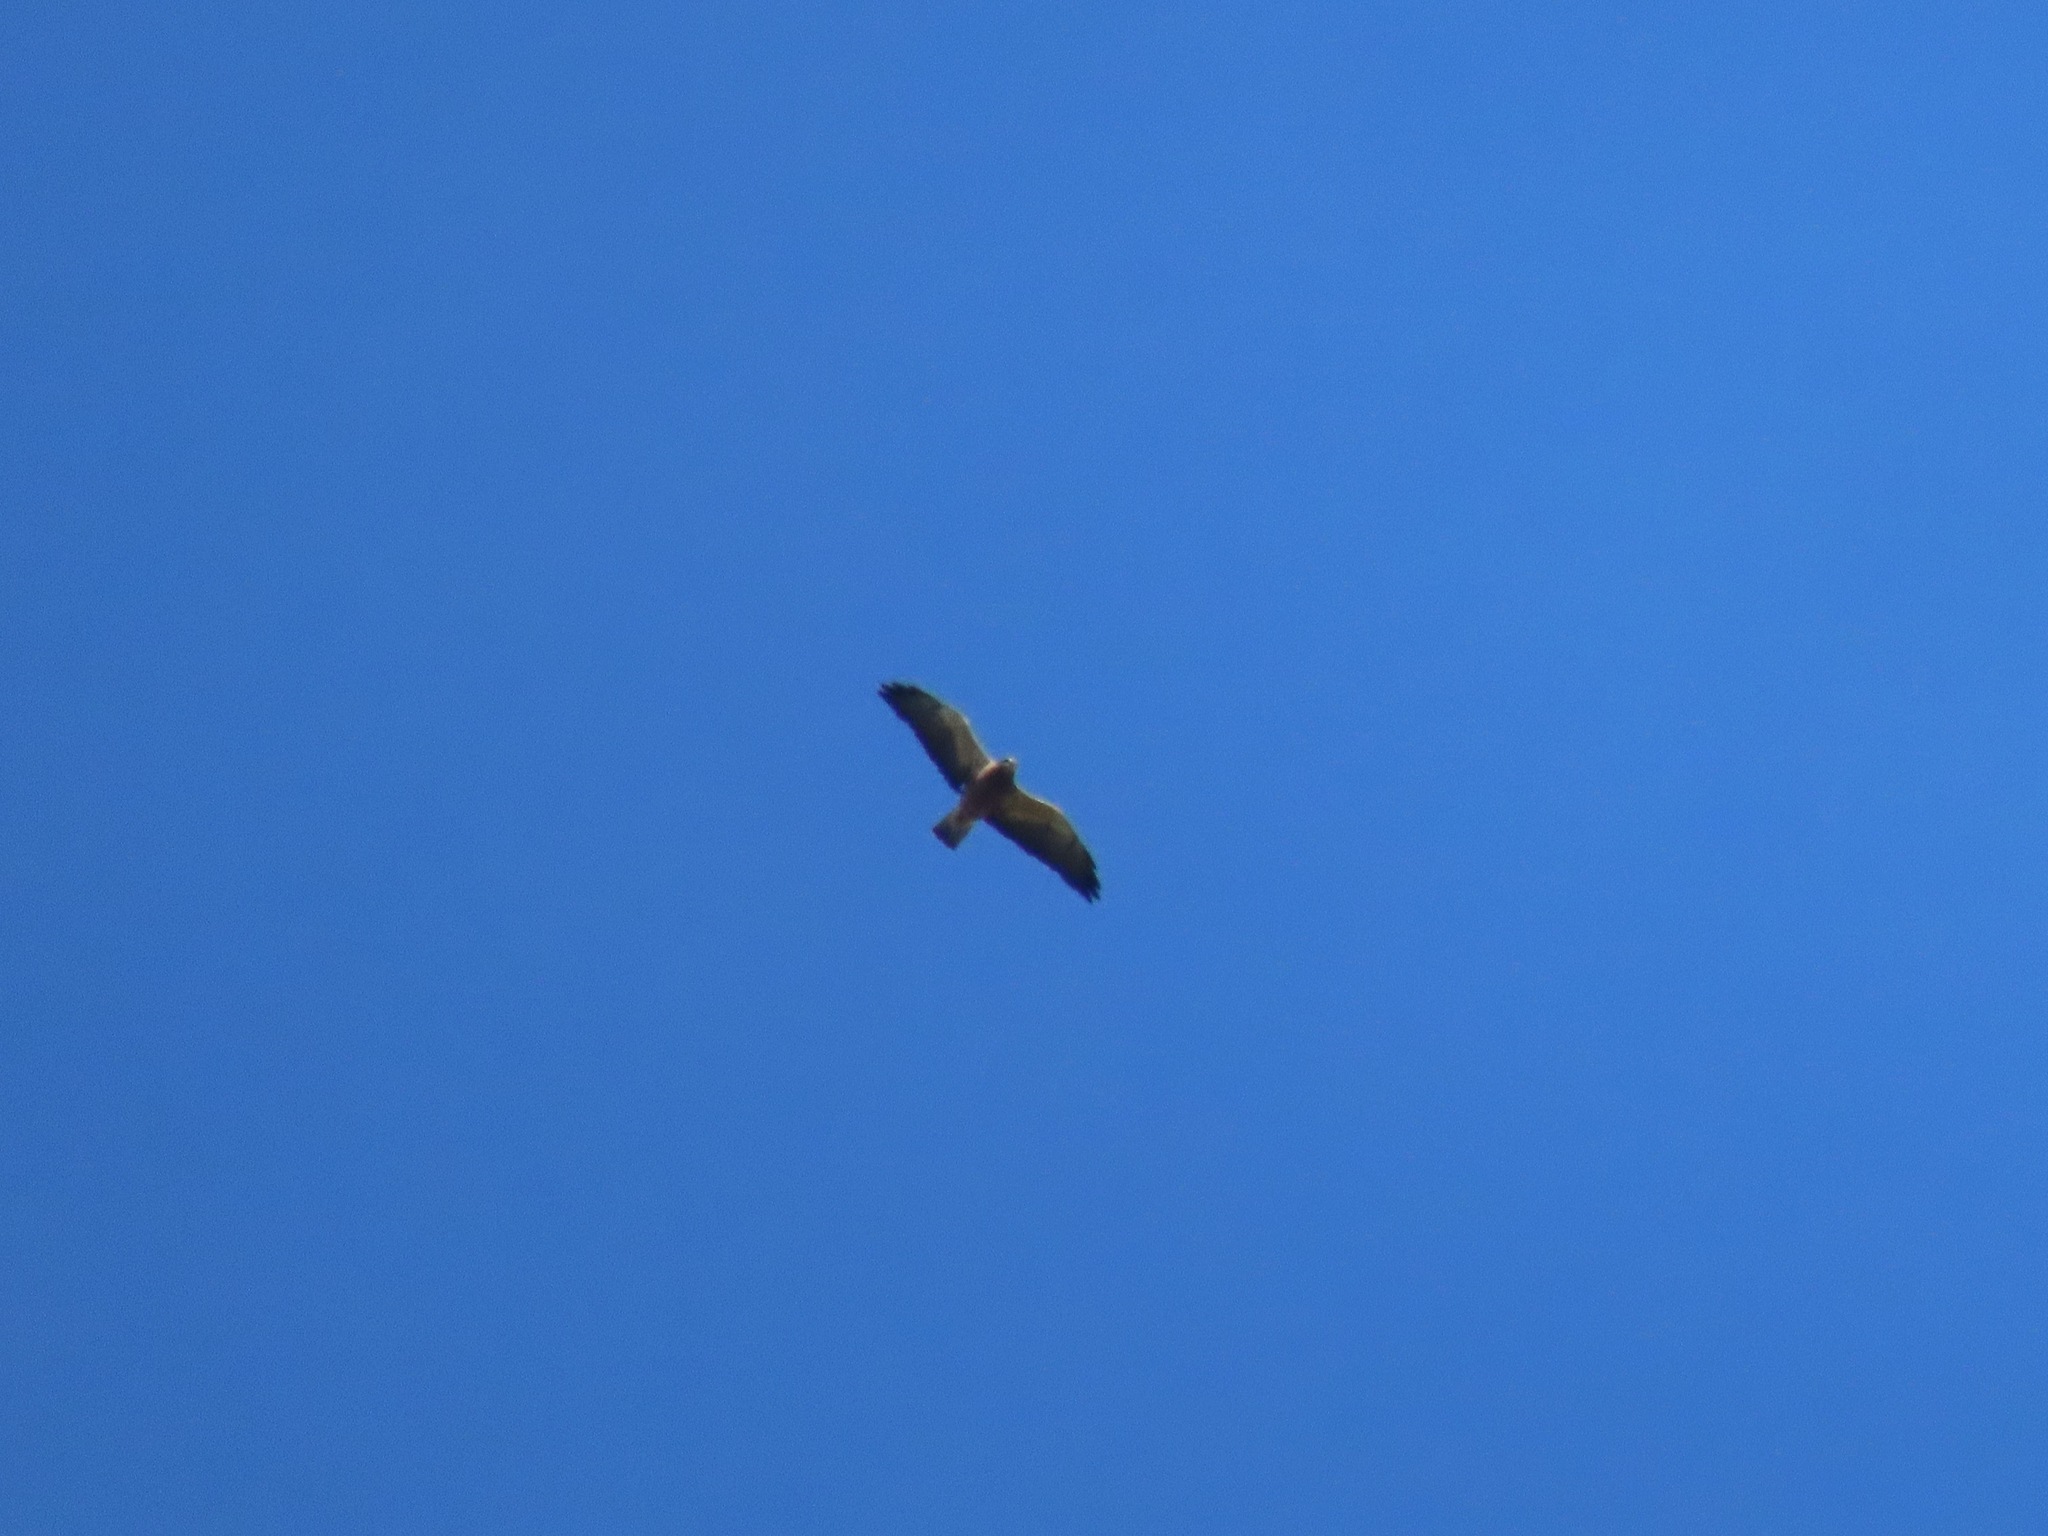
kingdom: Animalia
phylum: Chordata
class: Aves
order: Accipitriformes
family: Accipitridae
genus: Buteo
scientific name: Buteo swainsoni
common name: Swainson's hawk
